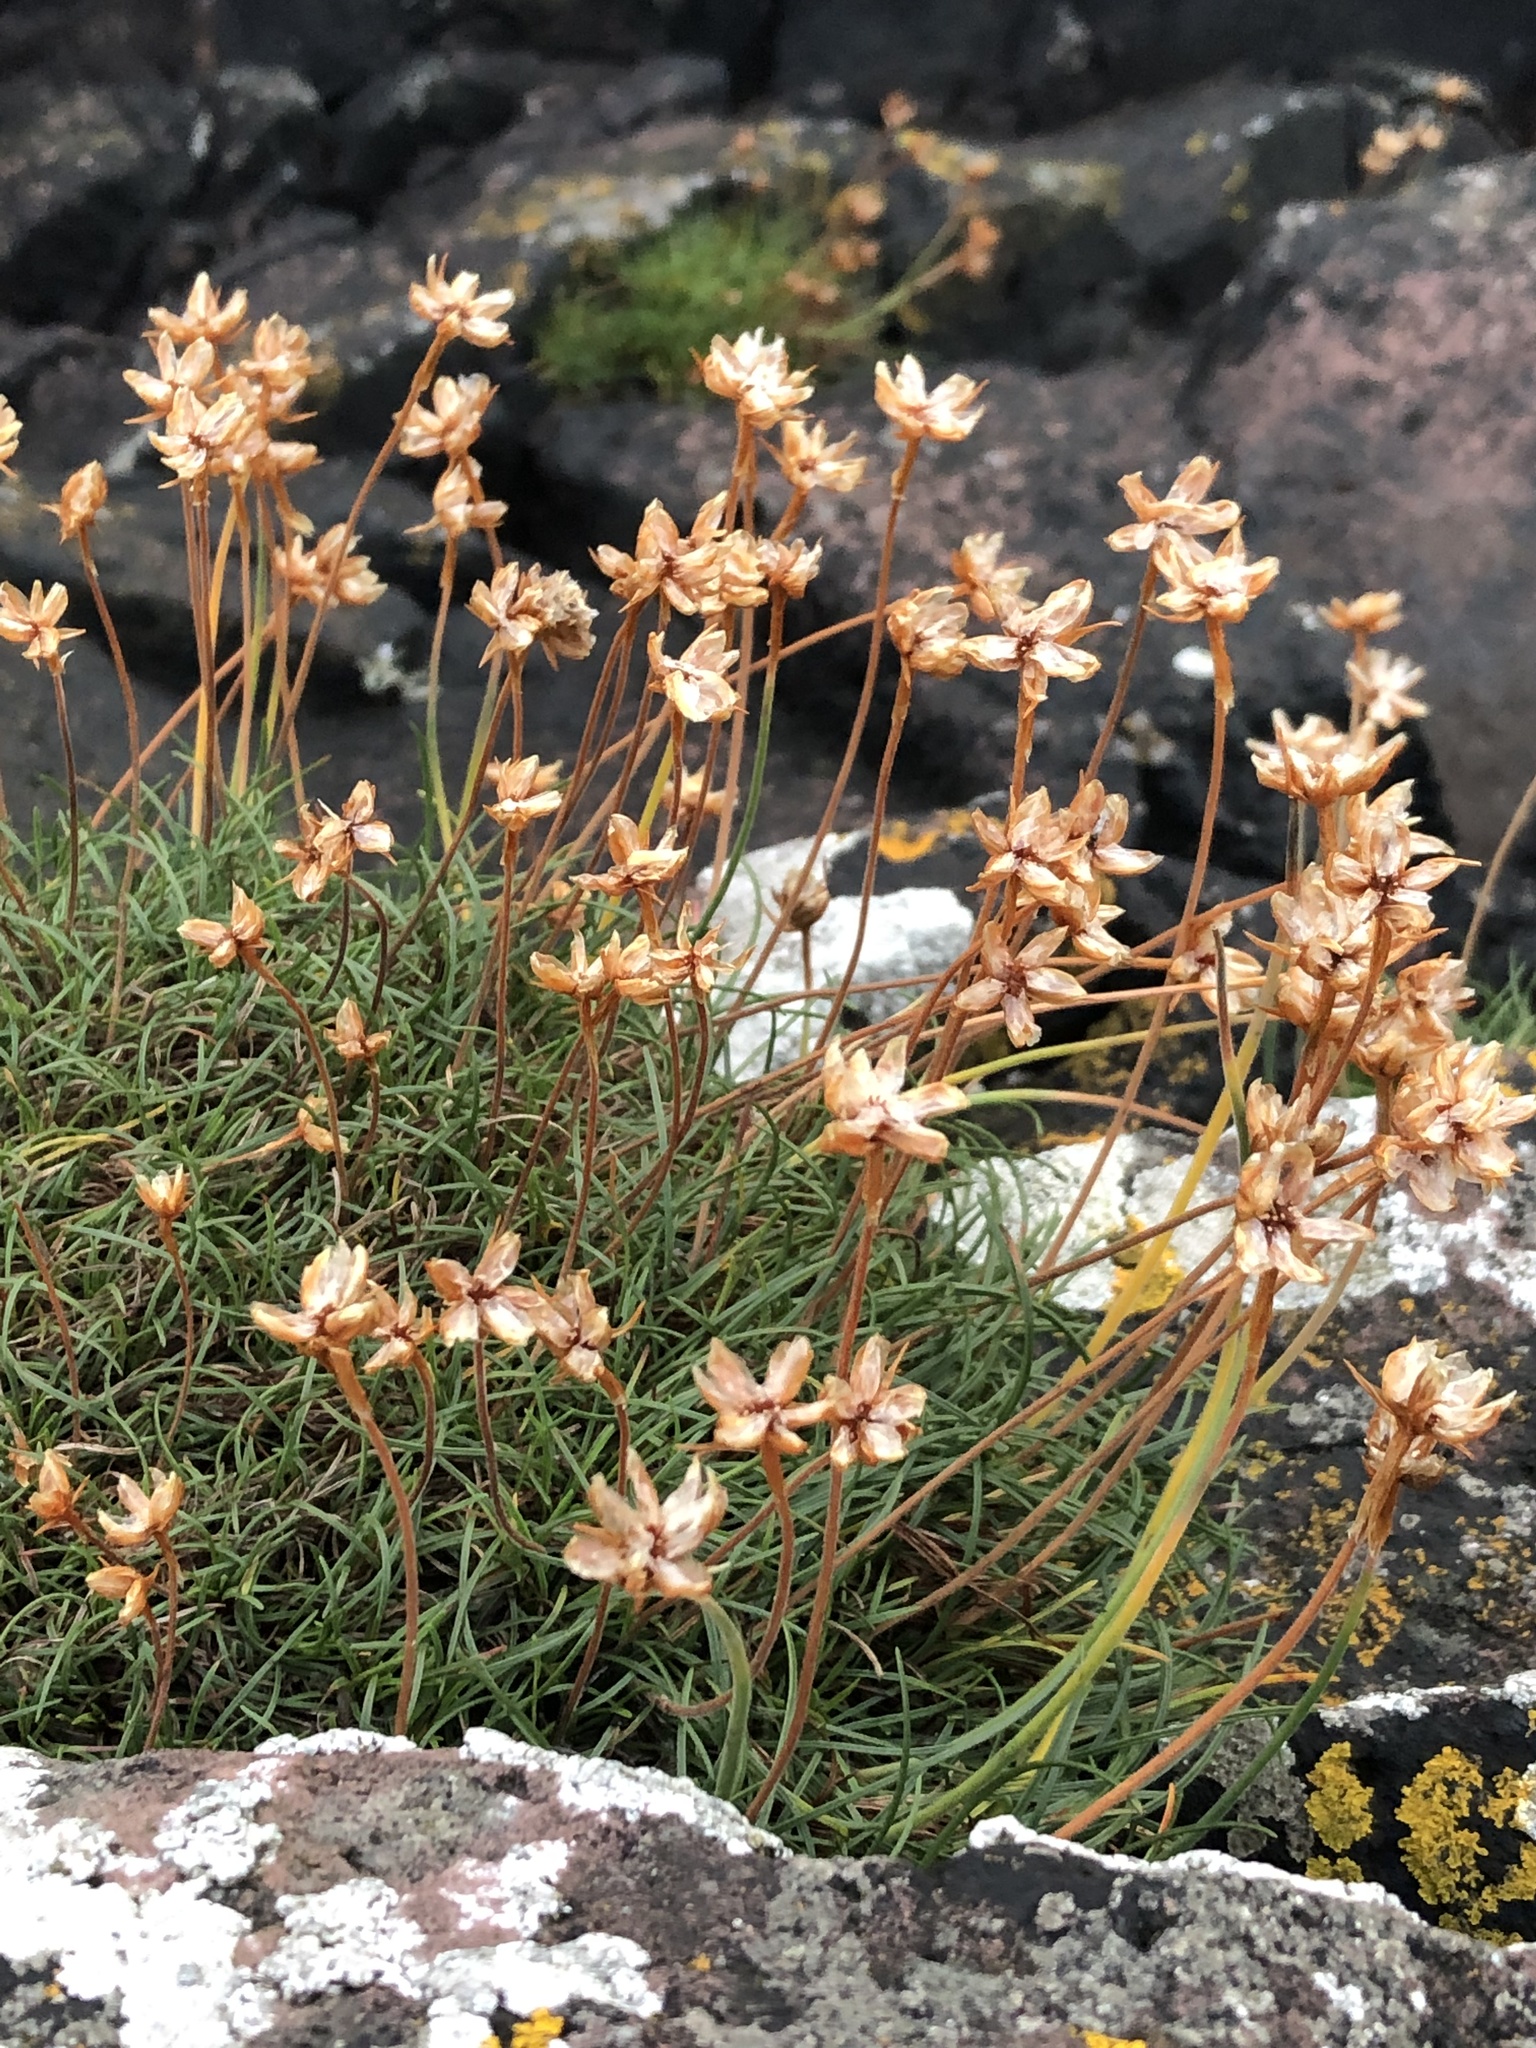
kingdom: Plantae
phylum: Tracheophyta
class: Magnoliopsida
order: Caryophyllales
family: Plumbaginaceae
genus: Armeria
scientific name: Armeria maritima
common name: Thrift
